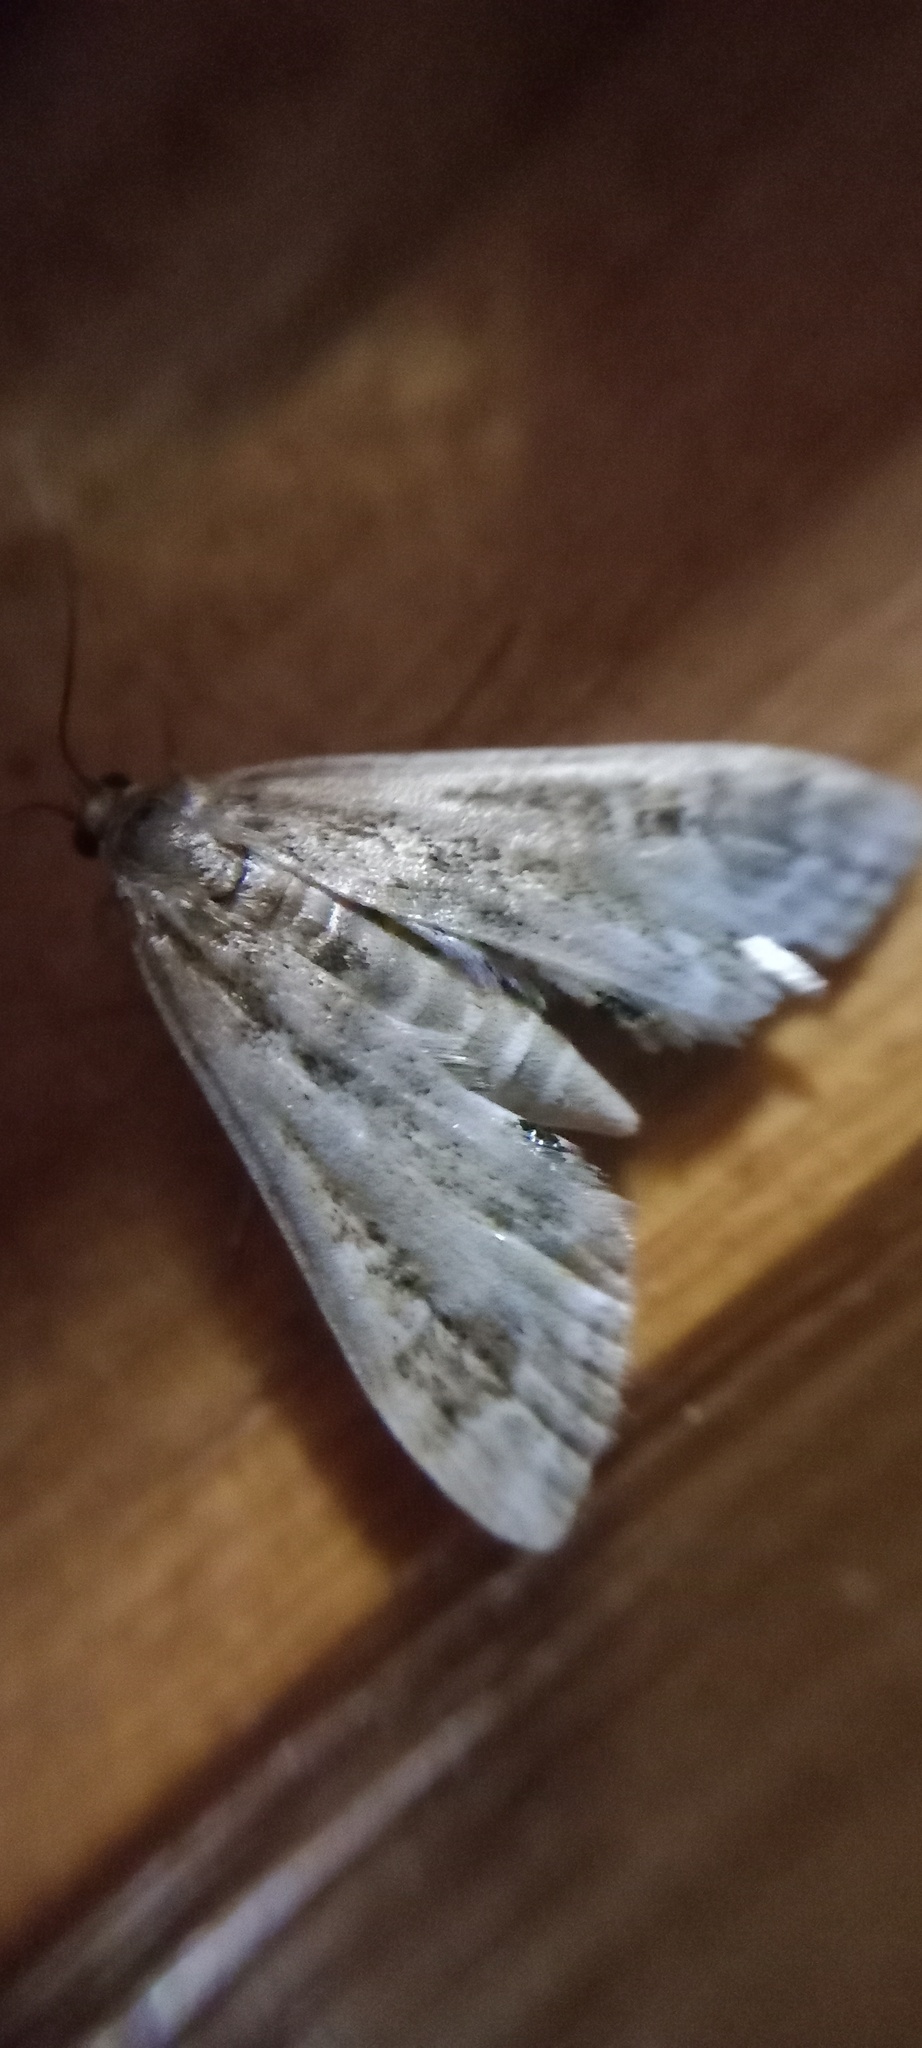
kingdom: Animalia
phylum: Arthropoda
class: Insecta
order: Lepidoptera
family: Crambidae
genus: Cataclysta
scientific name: Cataclysta lemnata
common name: Small china-mark
